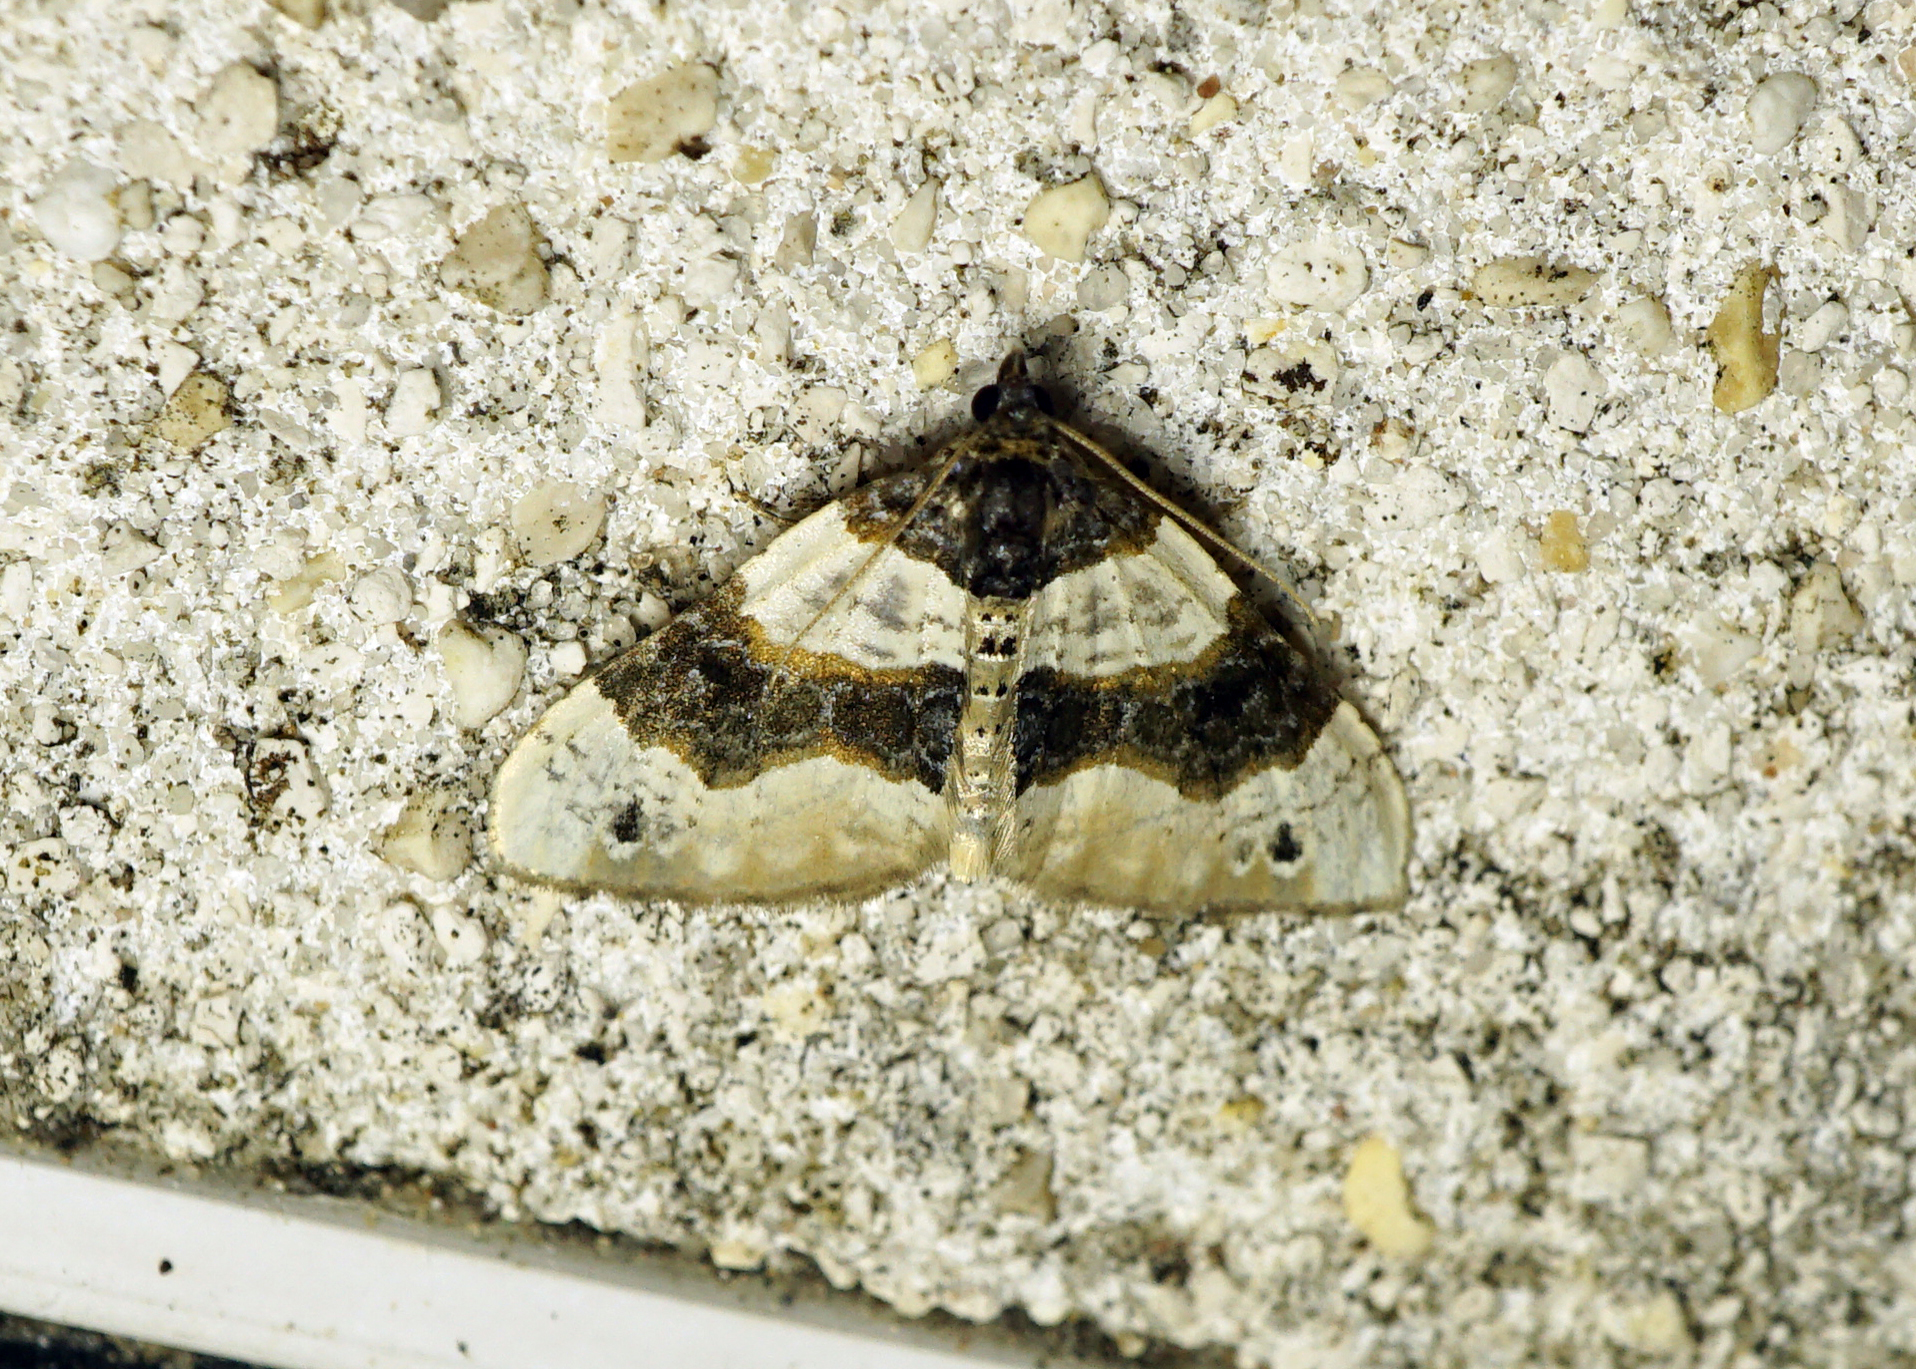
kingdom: Animalia
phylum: Arthropoda
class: Insecta
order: Lepidoptera
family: Geometridae
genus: Cosmorhoe
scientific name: Cosmorhoe ocellata
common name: Purple bar
